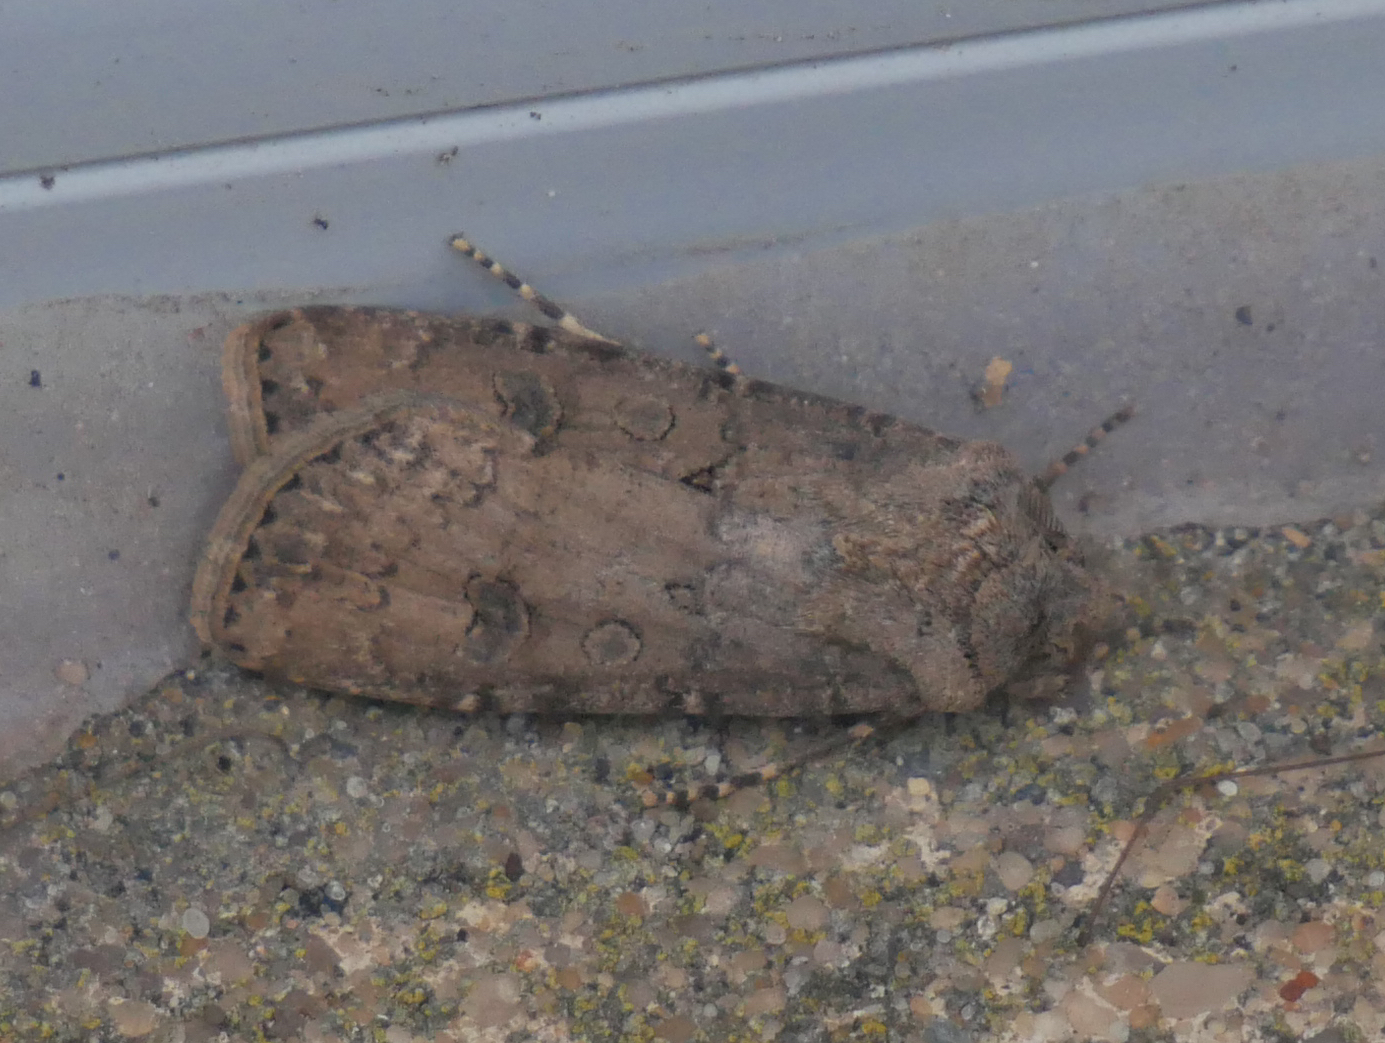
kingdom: Animalia
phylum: Arthropoda
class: Insecta
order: Lepidoptera
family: Noctuidae
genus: Agrotis
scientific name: Agrotis segetum
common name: Turnip moth
